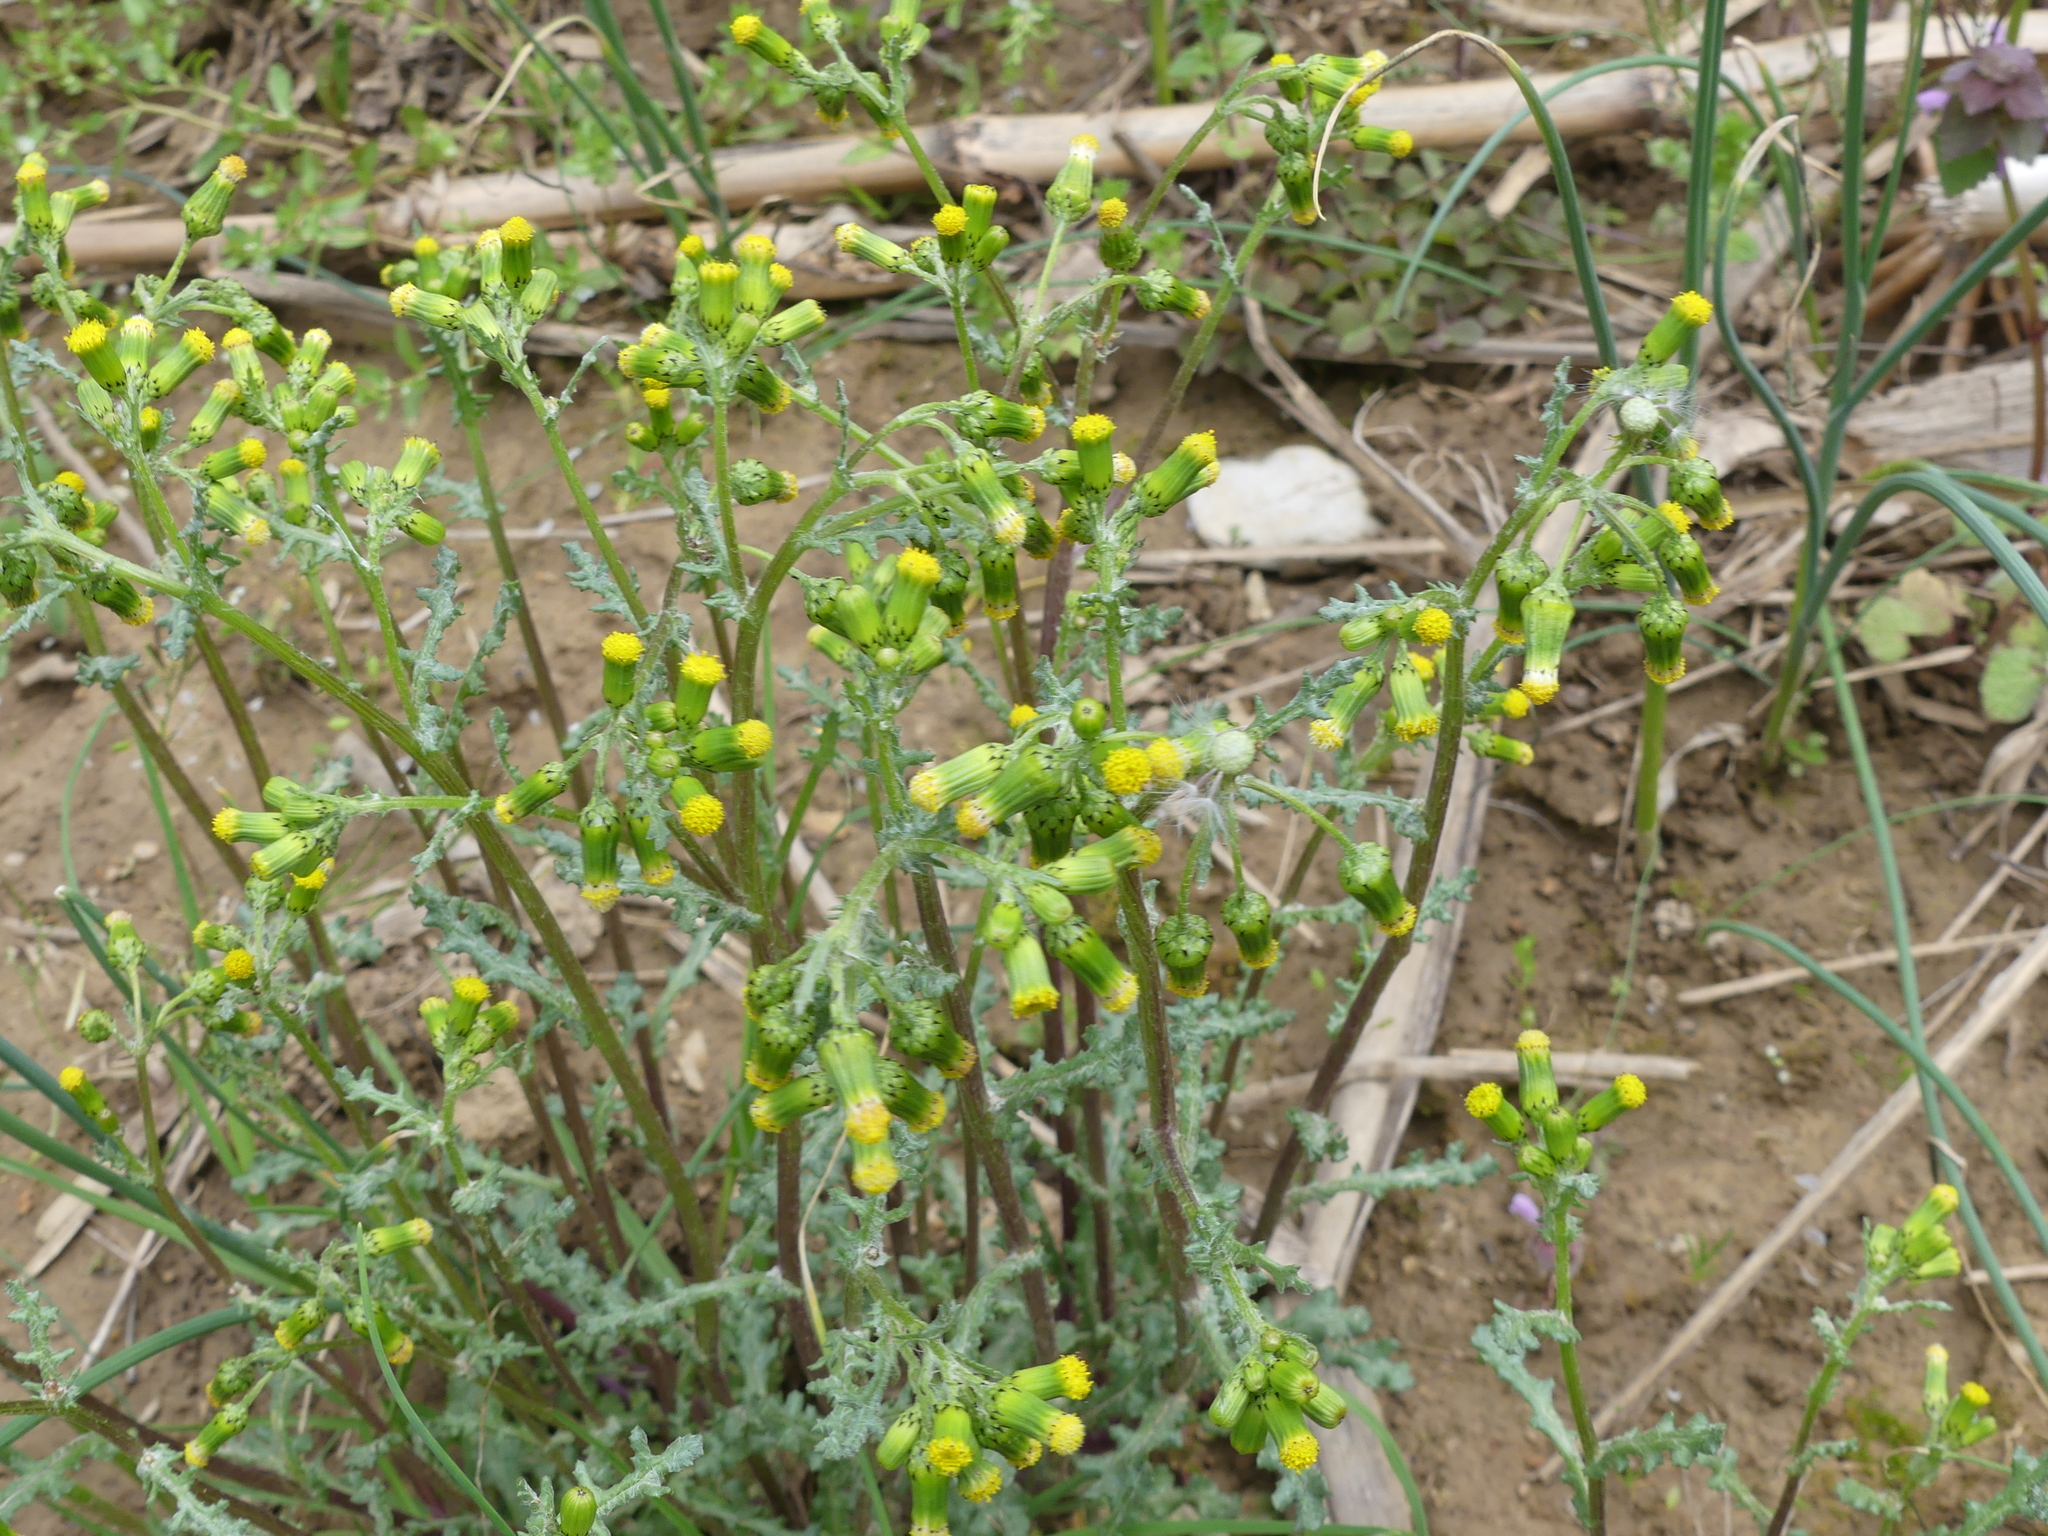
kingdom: Plantae
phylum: Tracheophyta
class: Magnoliopsida
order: Asterales
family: Asteraceae
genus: Senecio
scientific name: Senecio vulgaris
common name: Old-man-in-the-spring
